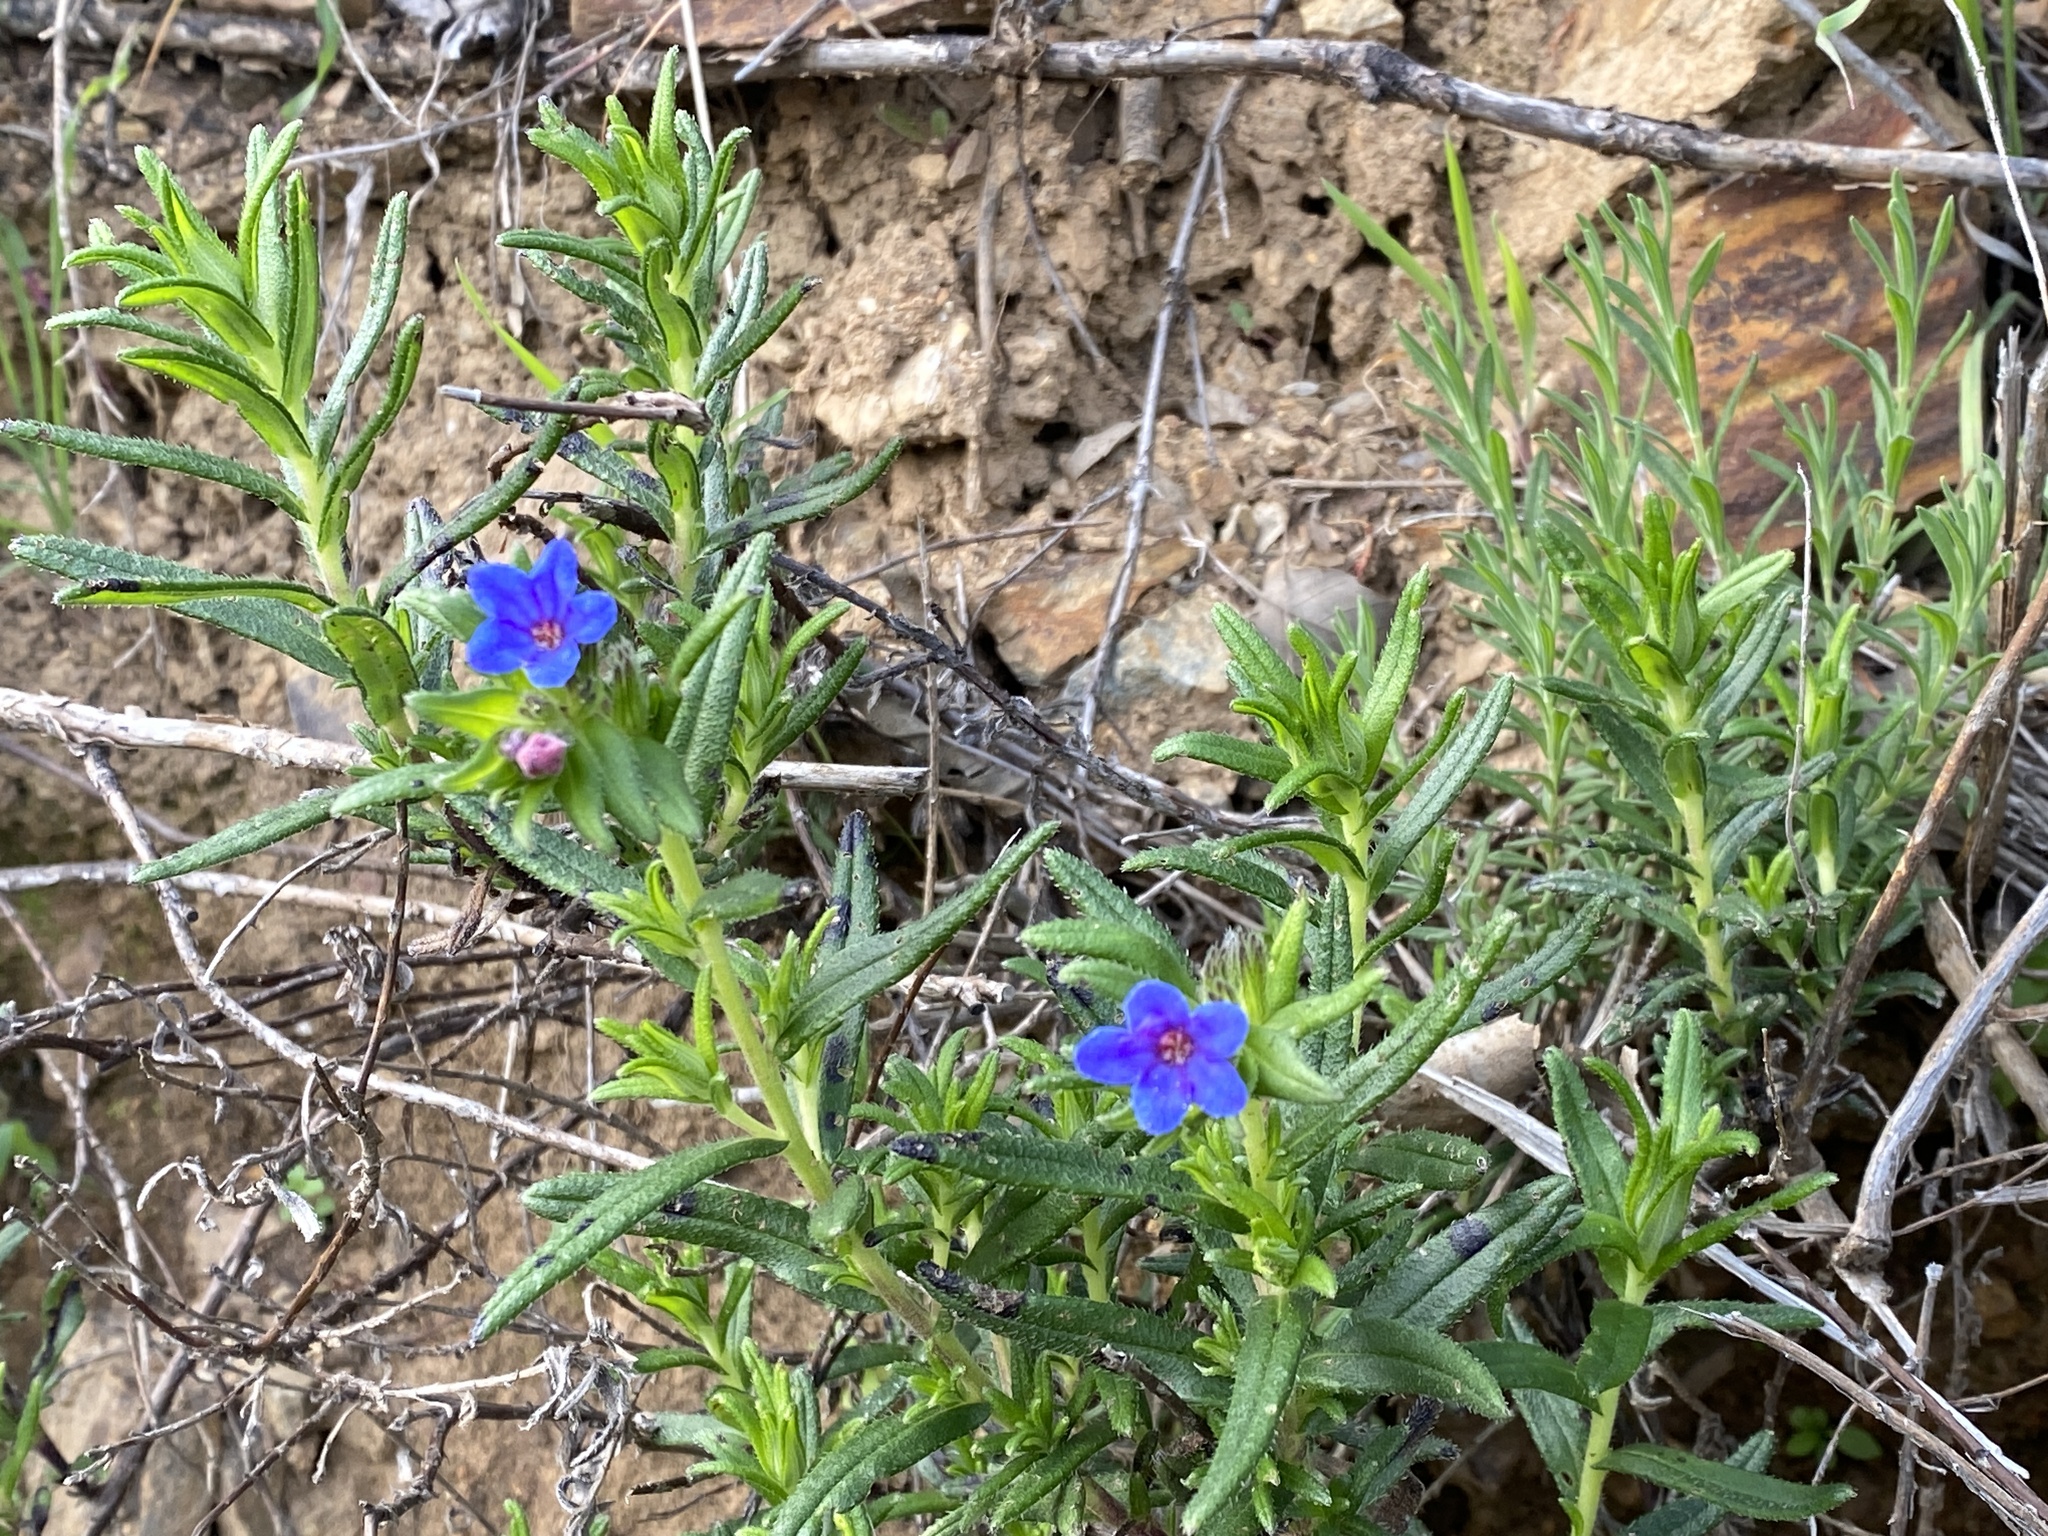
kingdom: Plantae
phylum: Tracheophyta
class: Magnoliopsida
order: Boraginales
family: Boraginaceae
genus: Glandora
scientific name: Glandora prostrata
